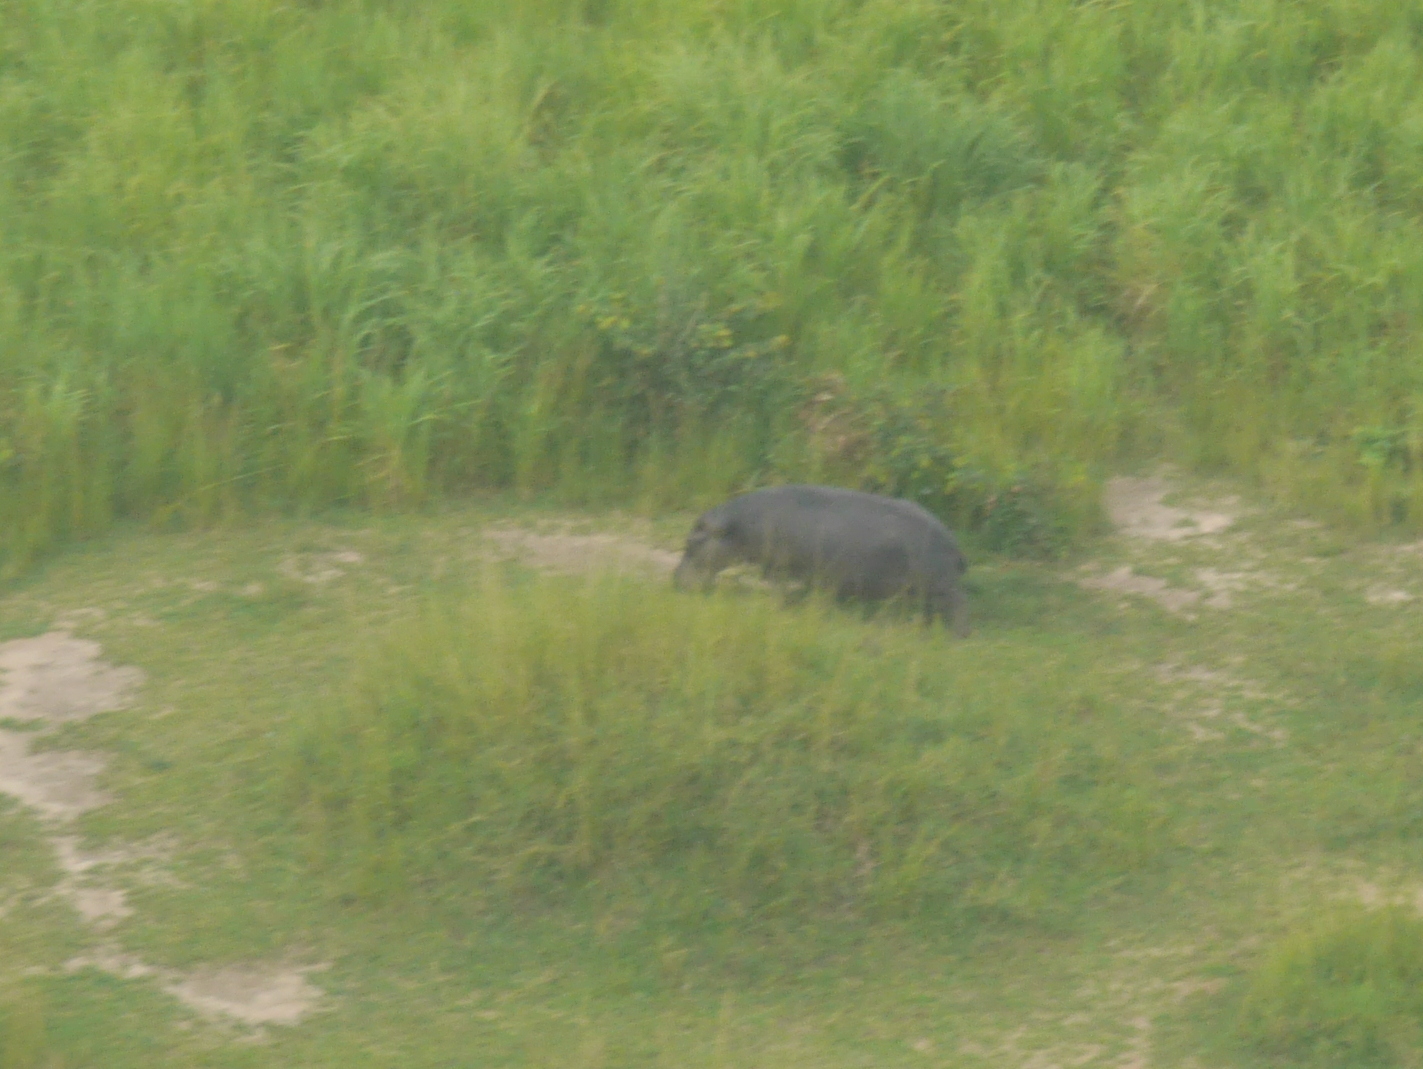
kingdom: Animalia
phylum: Chordata
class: Mammalia
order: Artiodactyla
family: Hippopotamidae
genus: Hippopotamus
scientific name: Hippopotamus amphibius
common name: Common hippopotamus
